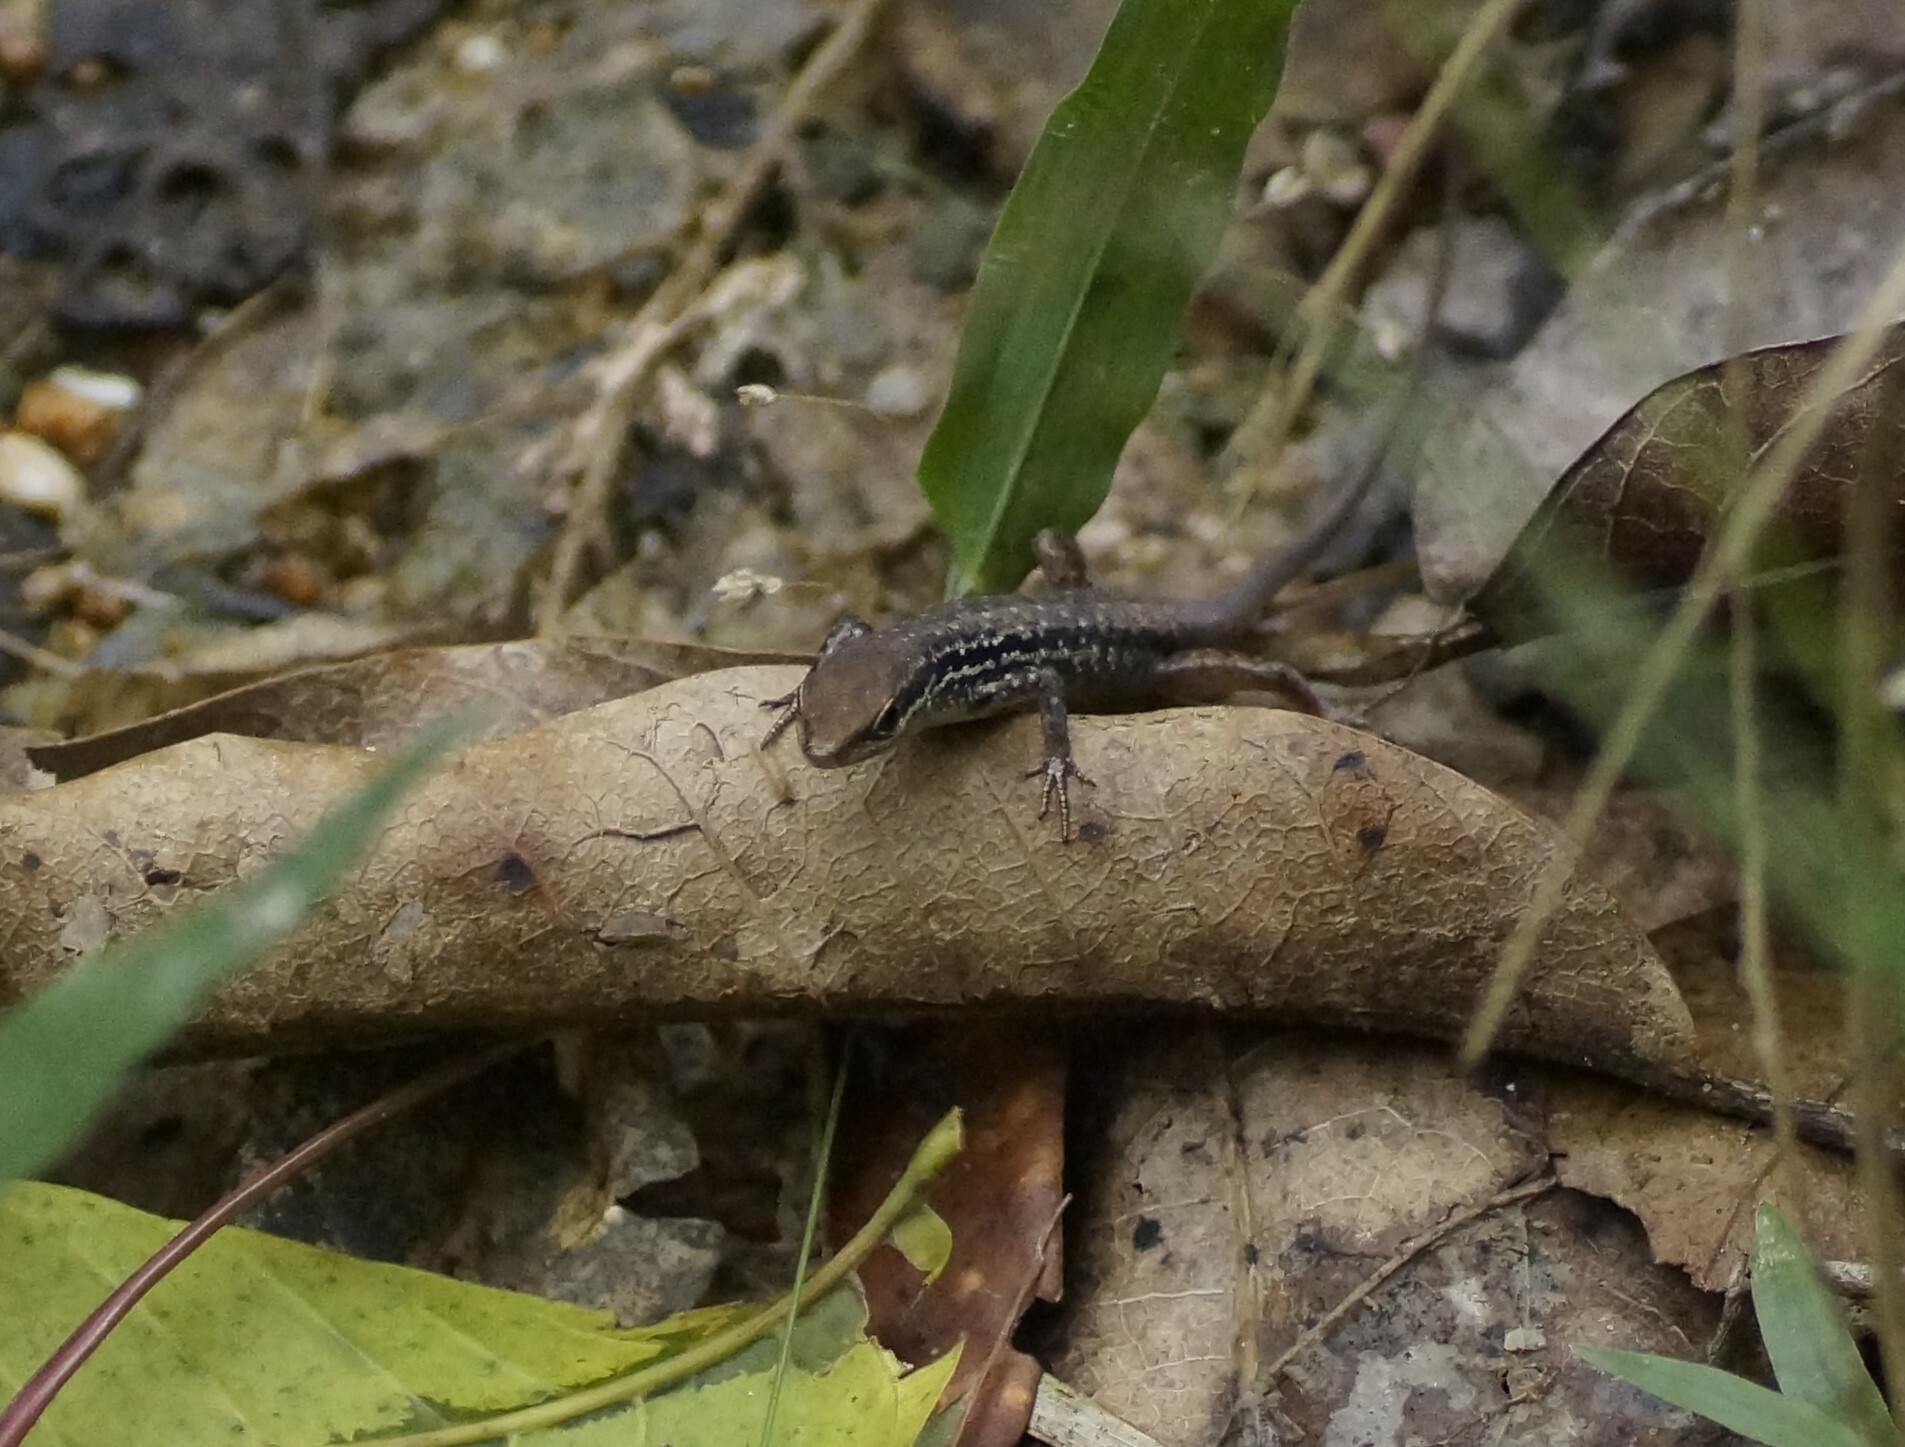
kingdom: Animalia
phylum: Chordata
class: Squamata
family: Scincidae
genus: Carlia
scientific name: Carlia sexdentata
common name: Closed-litter rainbow-skink
